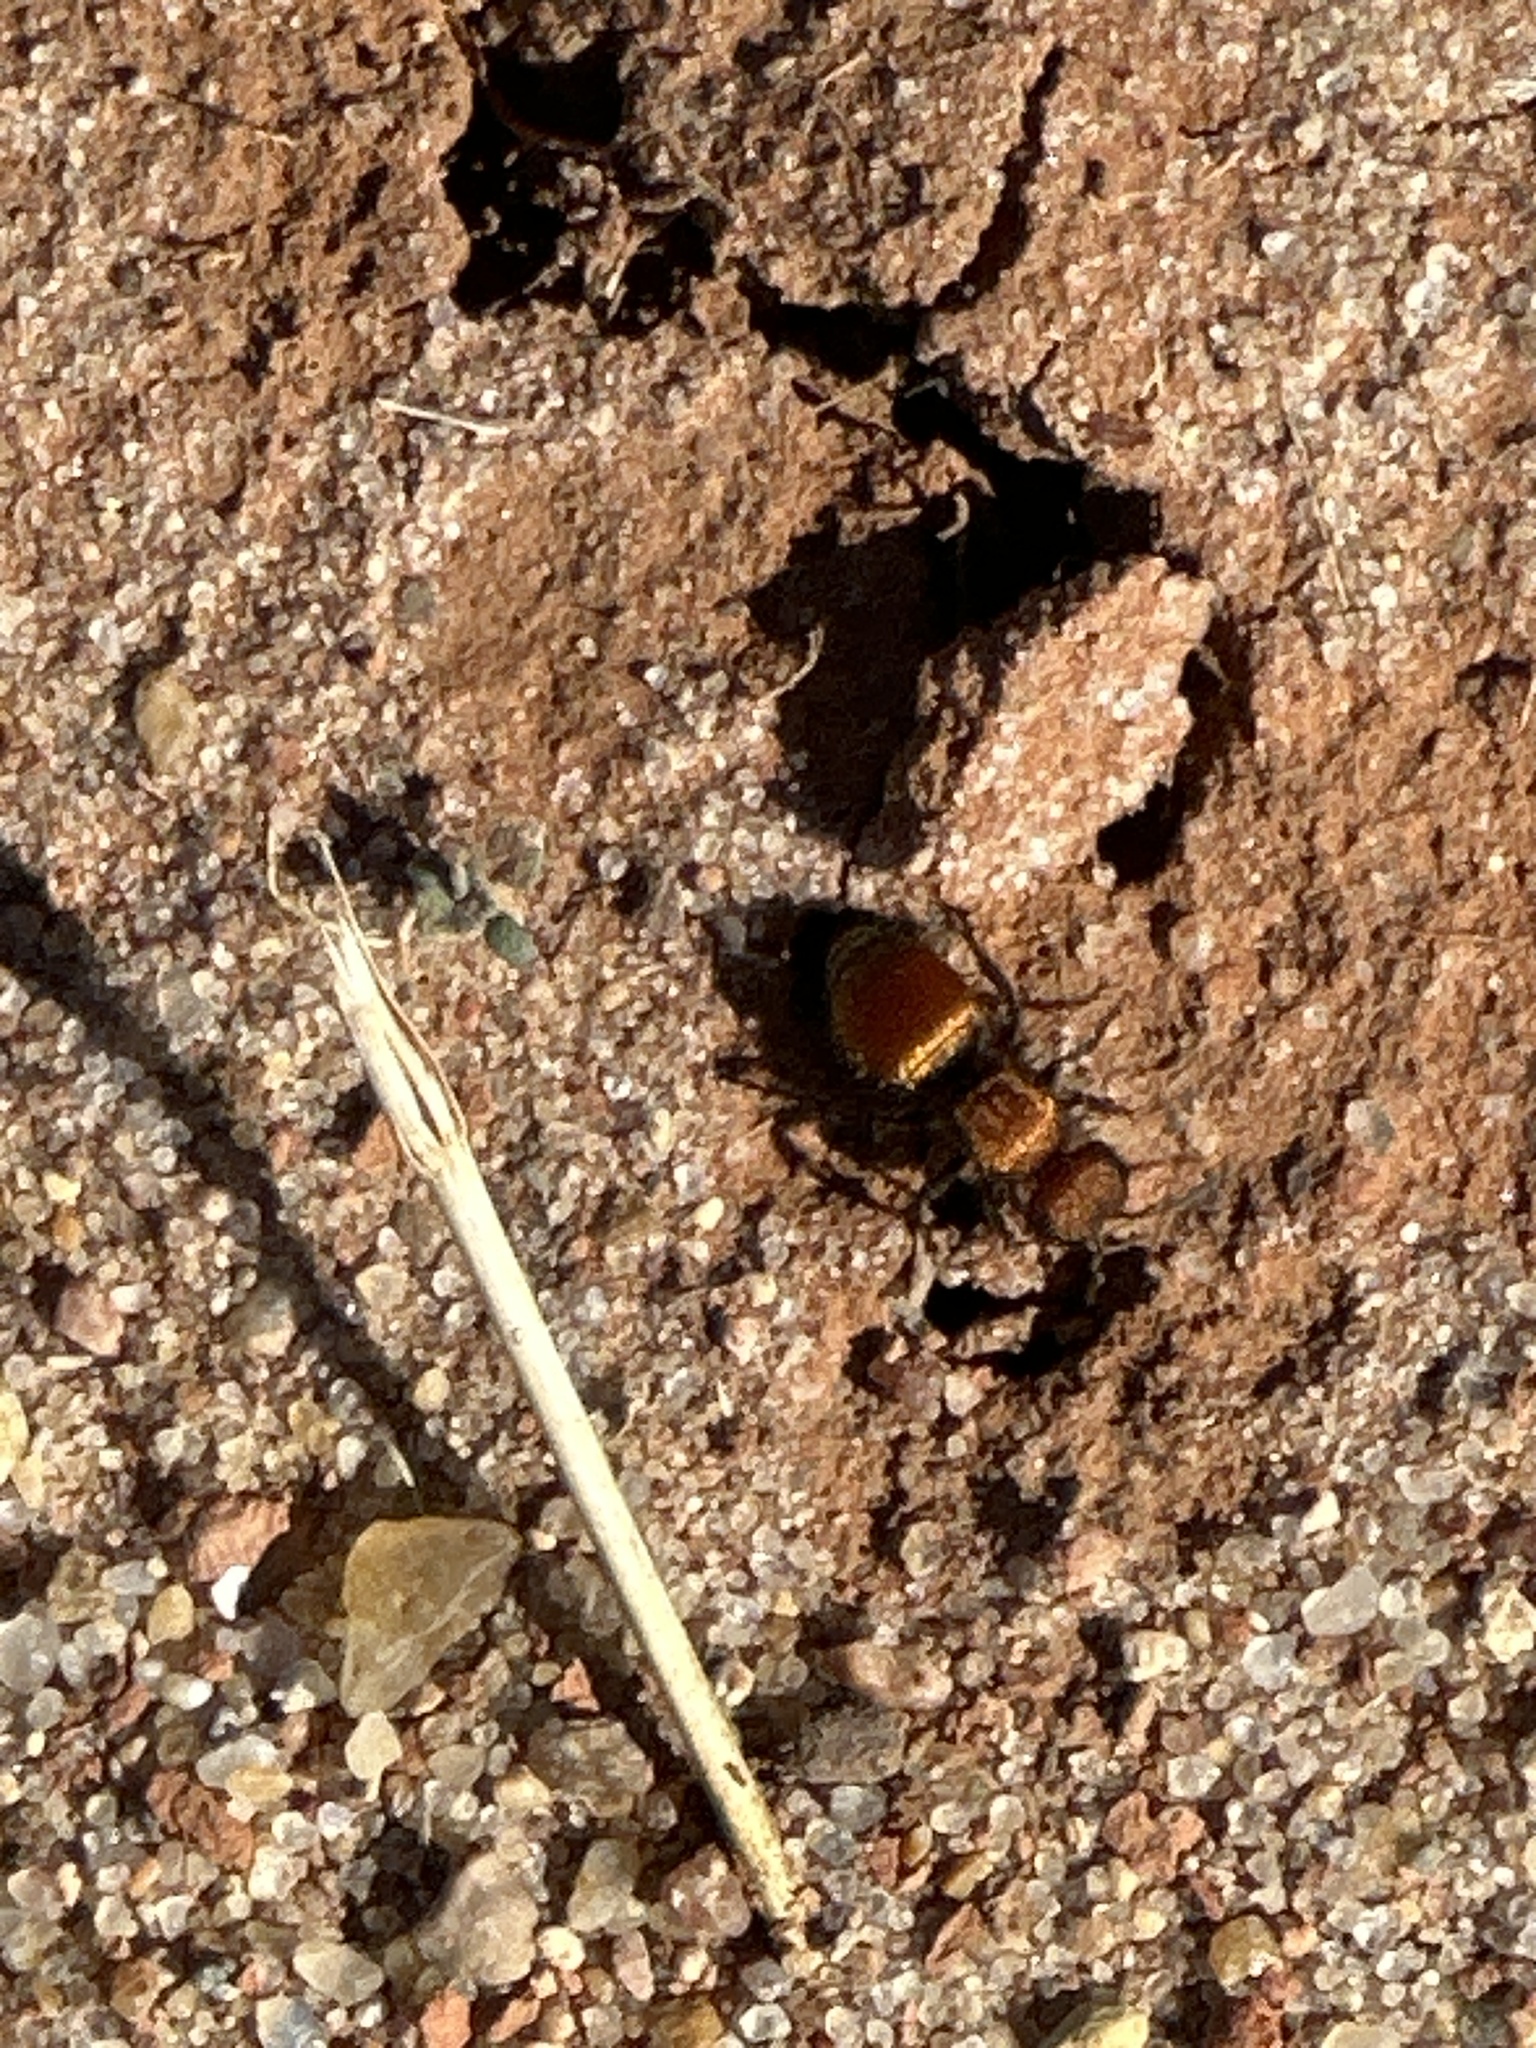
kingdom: Animalia
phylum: Arthropoda
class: Insecta
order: Hymenoptera
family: Mutillidae
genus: Pseudomethoca
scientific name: Pseudomethoca
